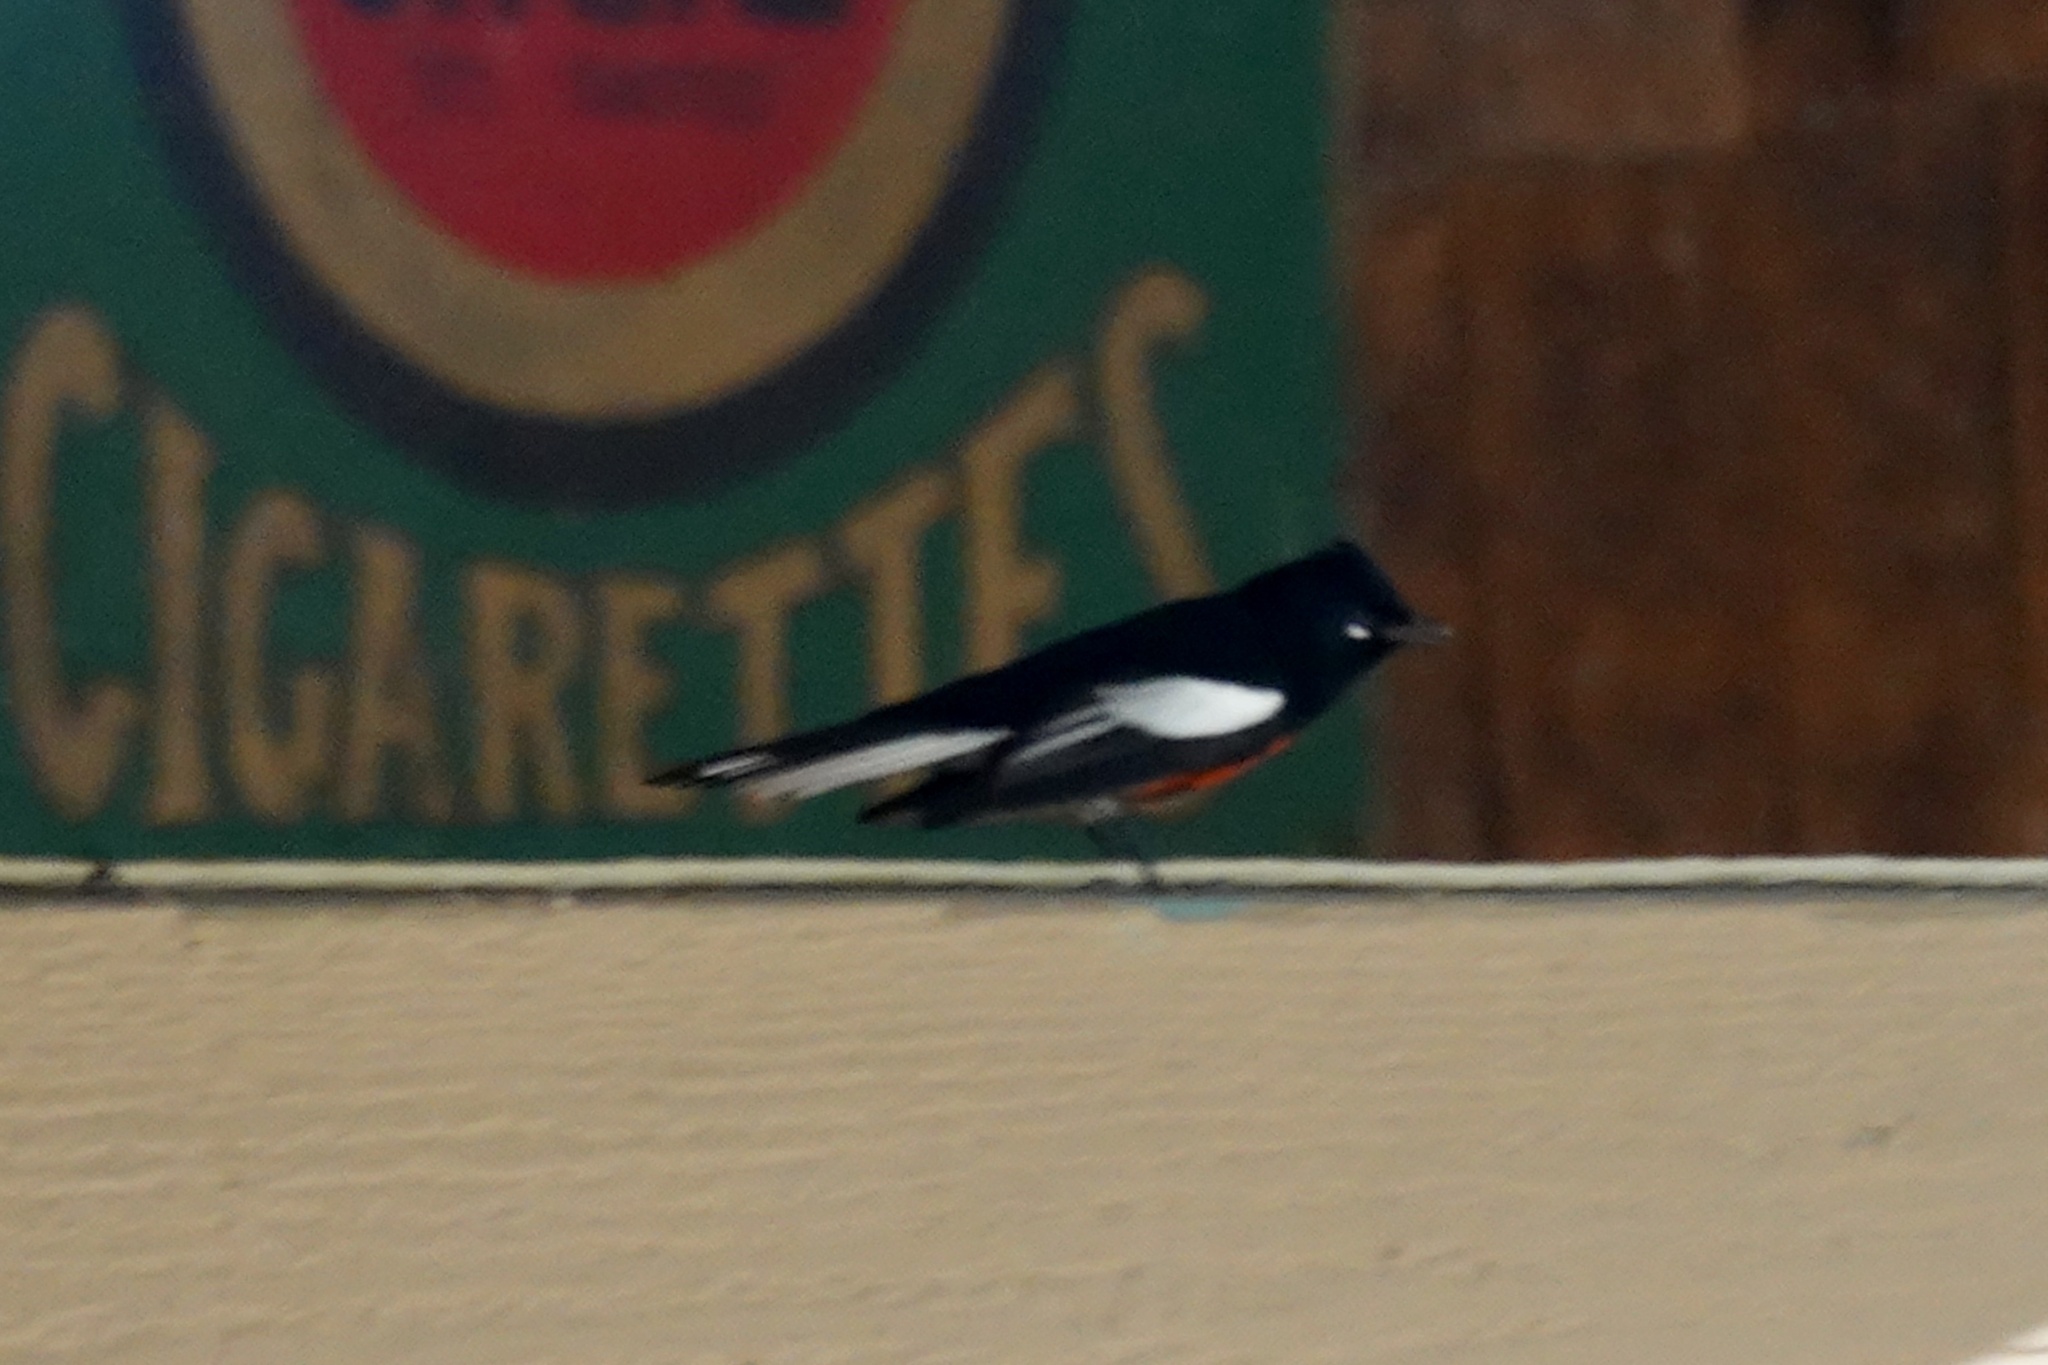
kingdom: Animalia
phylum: Chordata
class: Aves
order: Passeriformes
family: Parulidae
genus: Myioborus
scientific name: Myioborus pictus
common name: Painted whitestart
